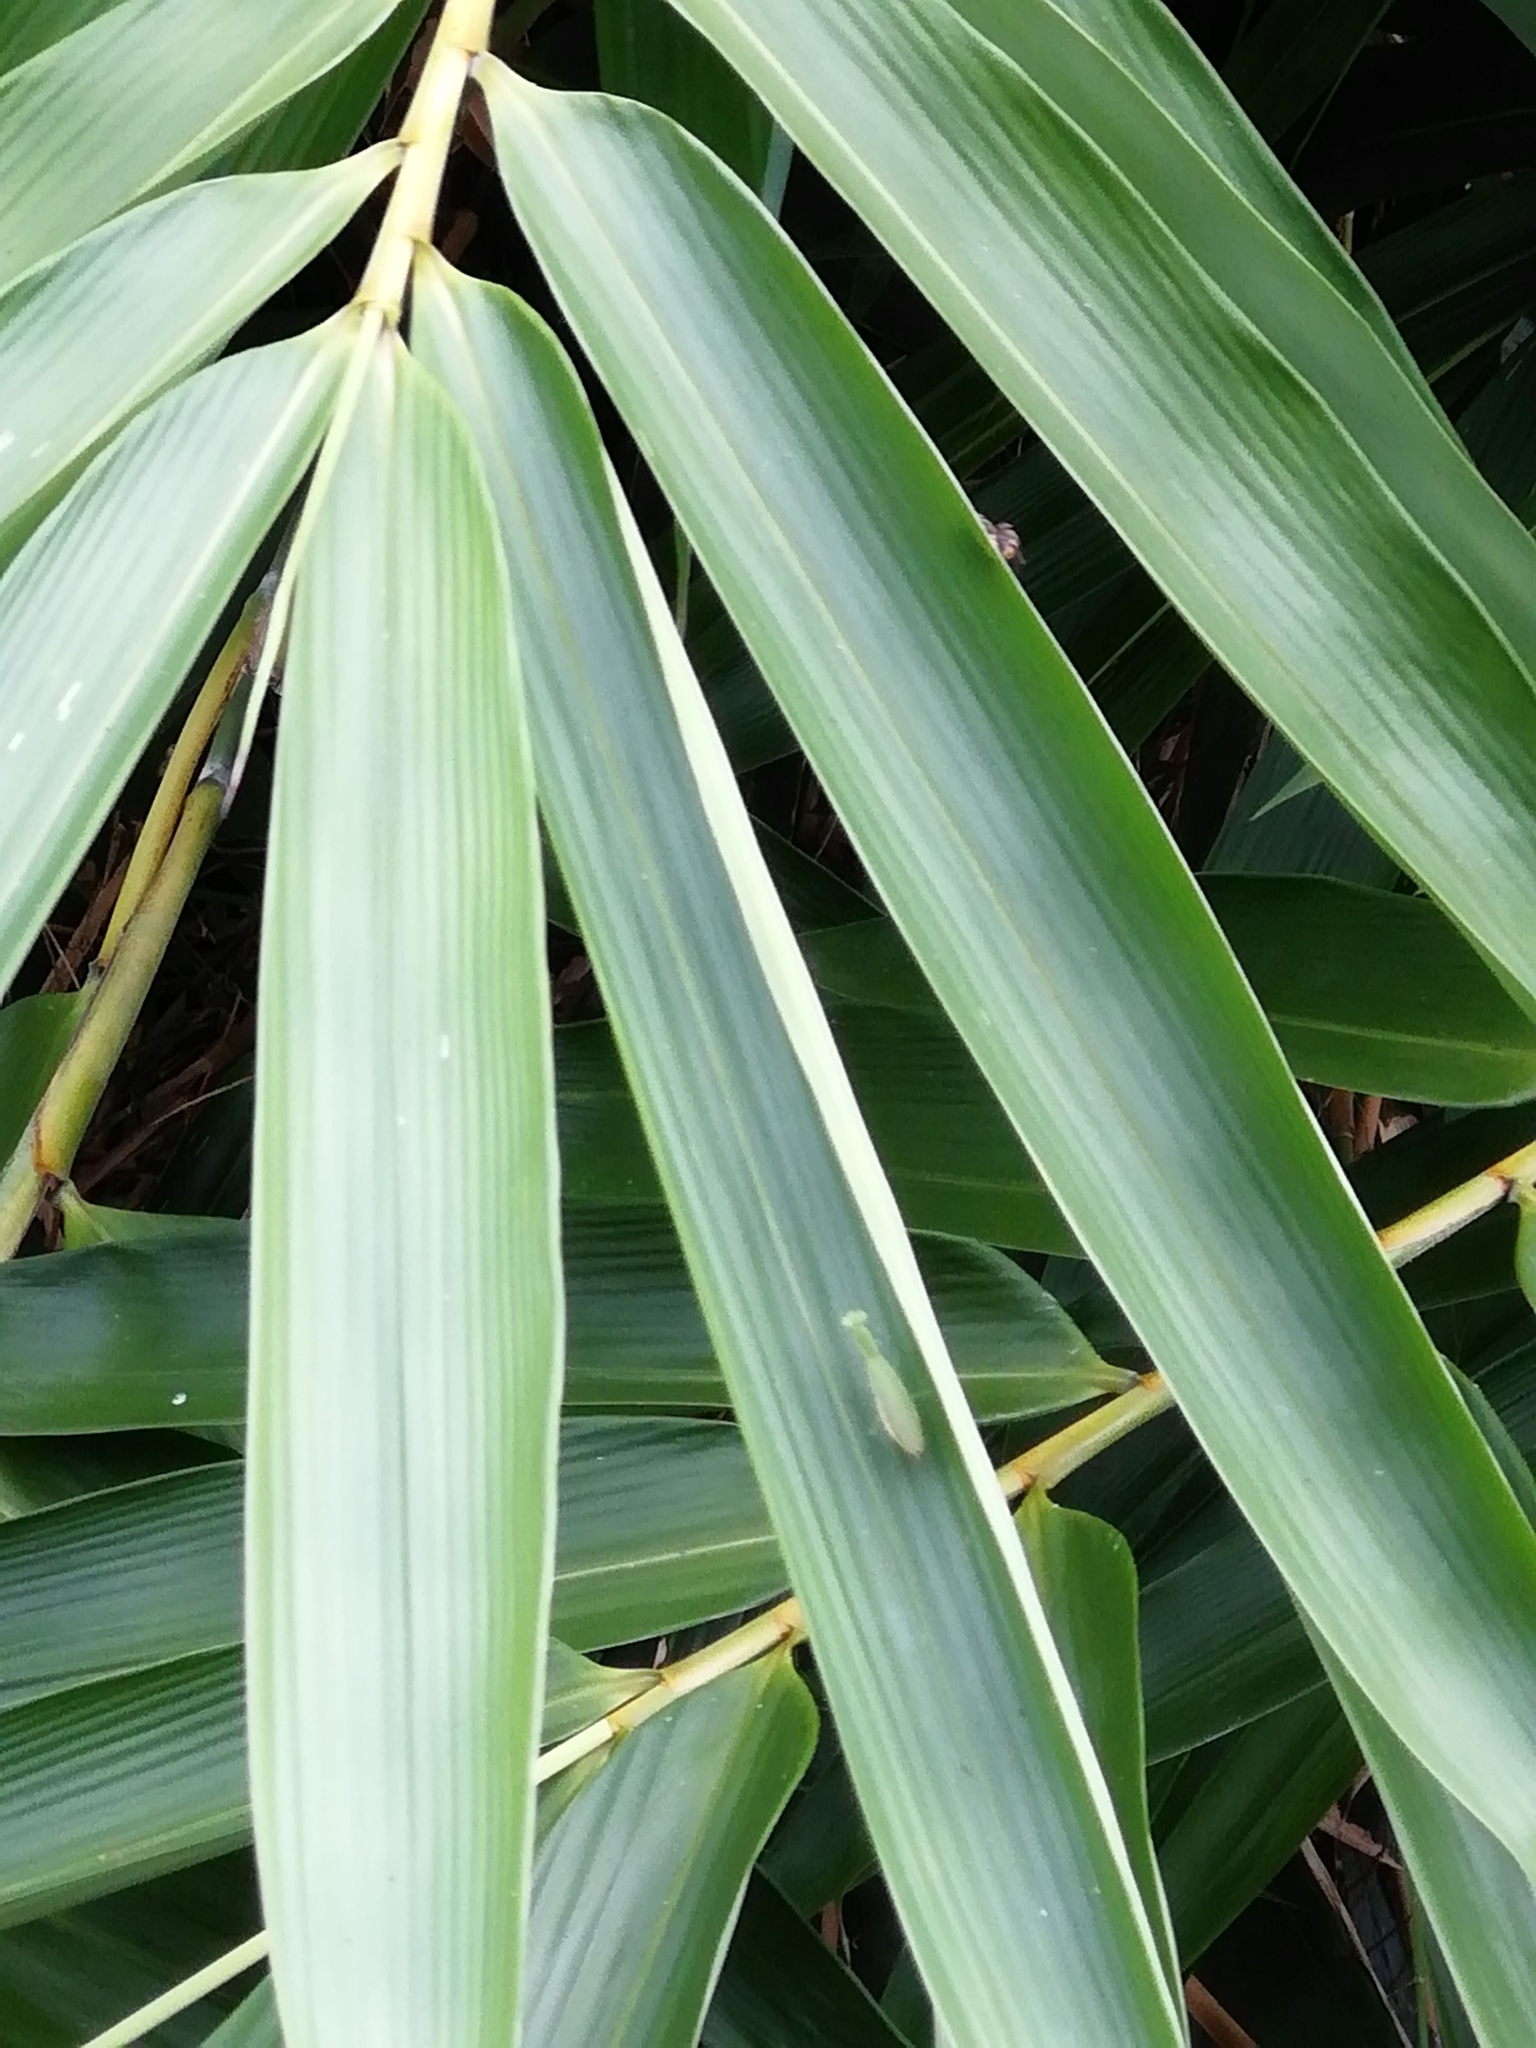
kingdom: Animalia
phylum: Arthropoda
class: Insecta
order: Mantodea
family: Hymenopodidae
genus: Odontomantis
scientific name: Odontomantis planiceps
